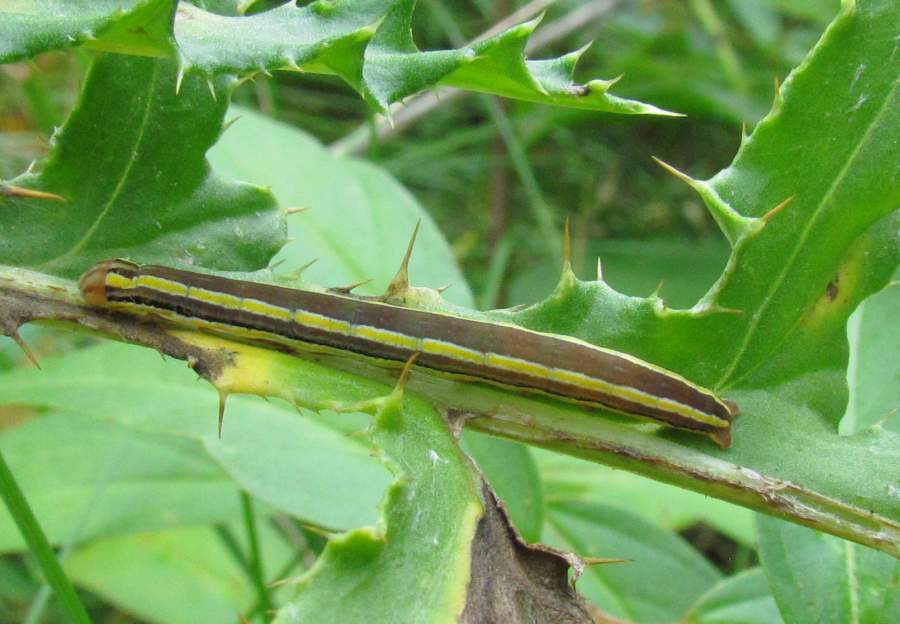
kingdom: Animalia
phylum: Arthropoda
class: Insecta
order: Lepidoptera
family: Noctuidae
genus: Trichordestra
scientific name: Trichordestra legitima
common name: Striped garden caterpillar
